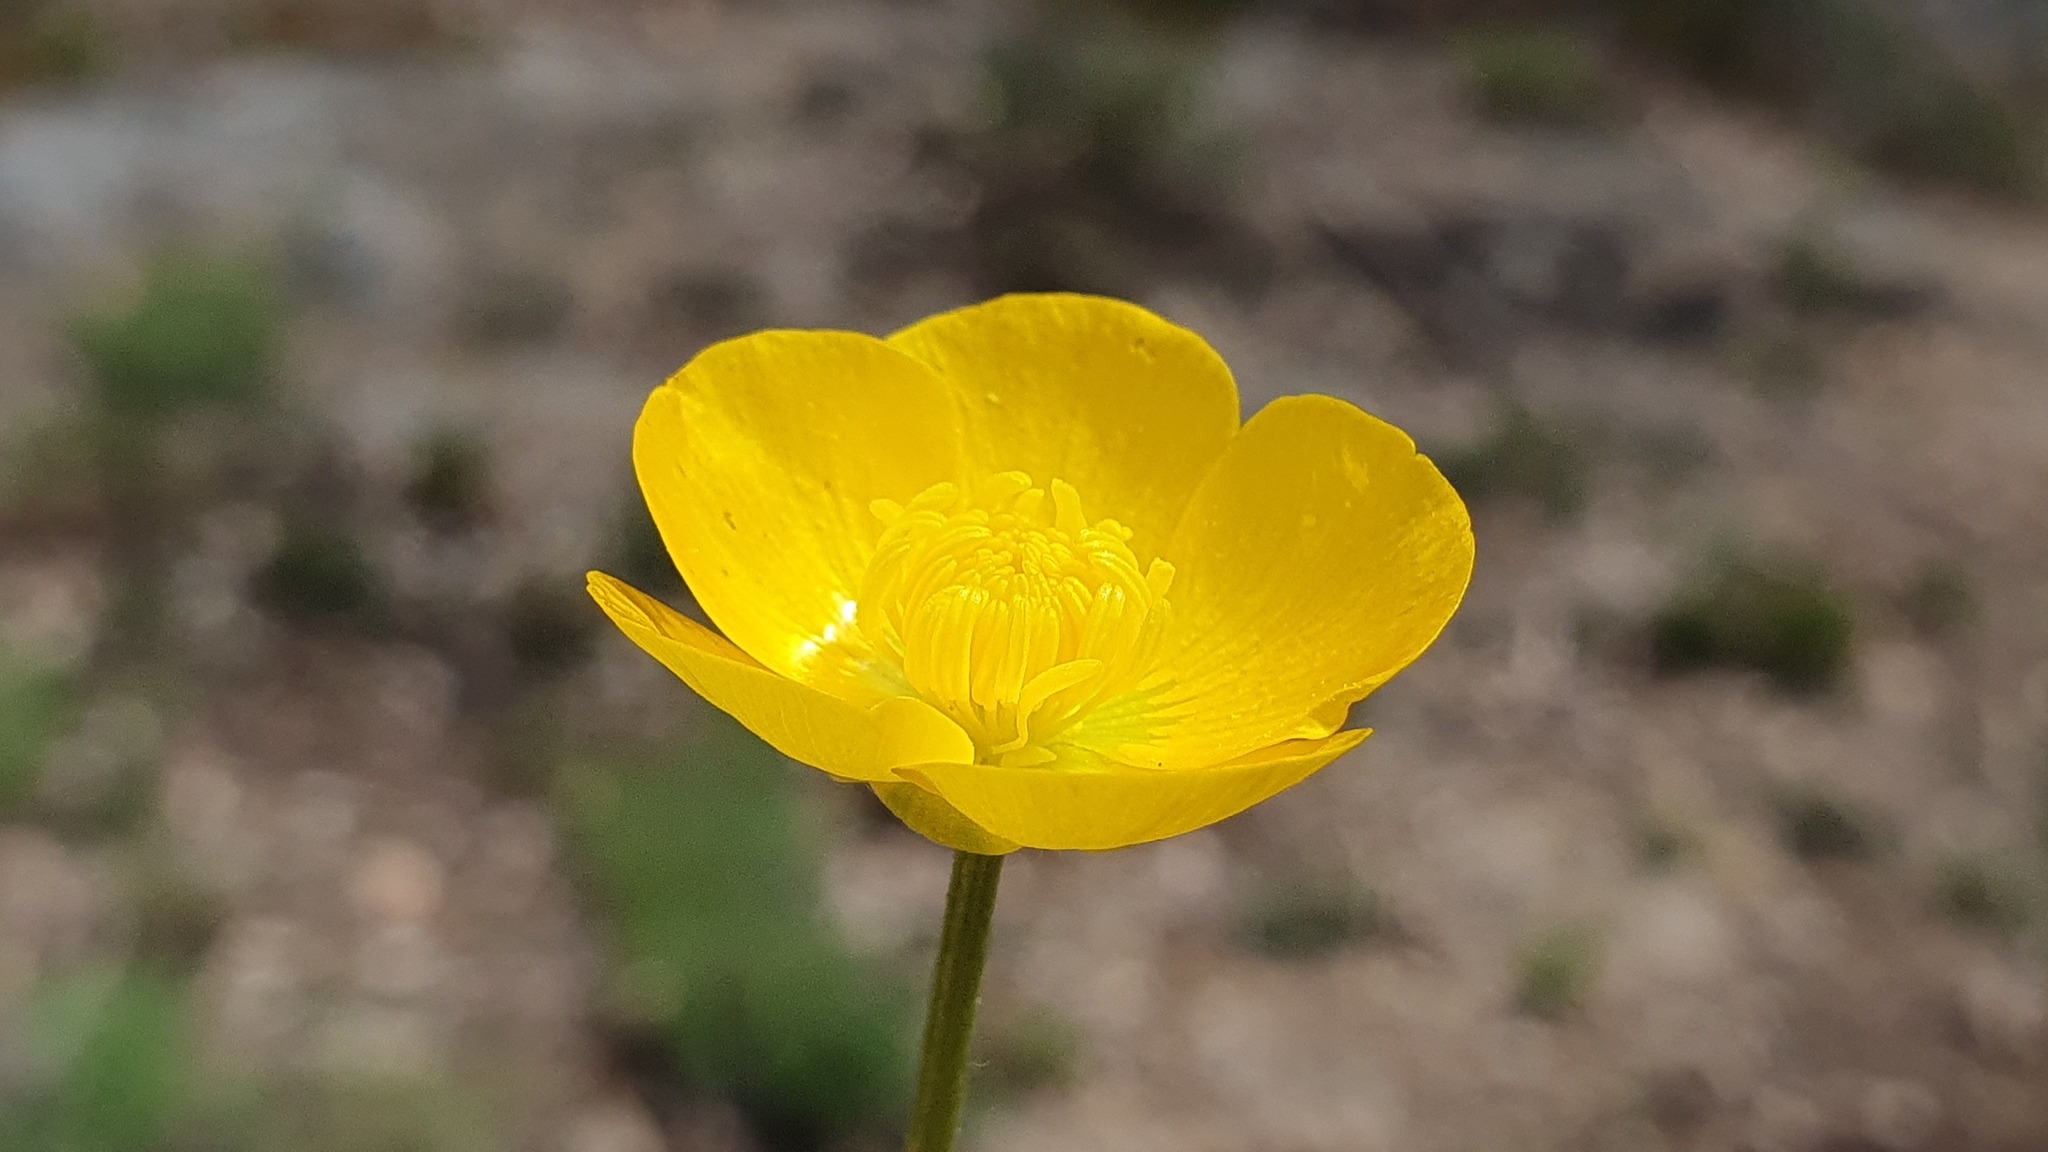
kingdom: Plantae
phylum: Tracheophyta
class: Magnoliopsida
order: Ranunculales
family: Ranunculaceae
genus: Ranunculus
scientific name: Ranunculus bulbosus
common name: Bulbous buttercup
